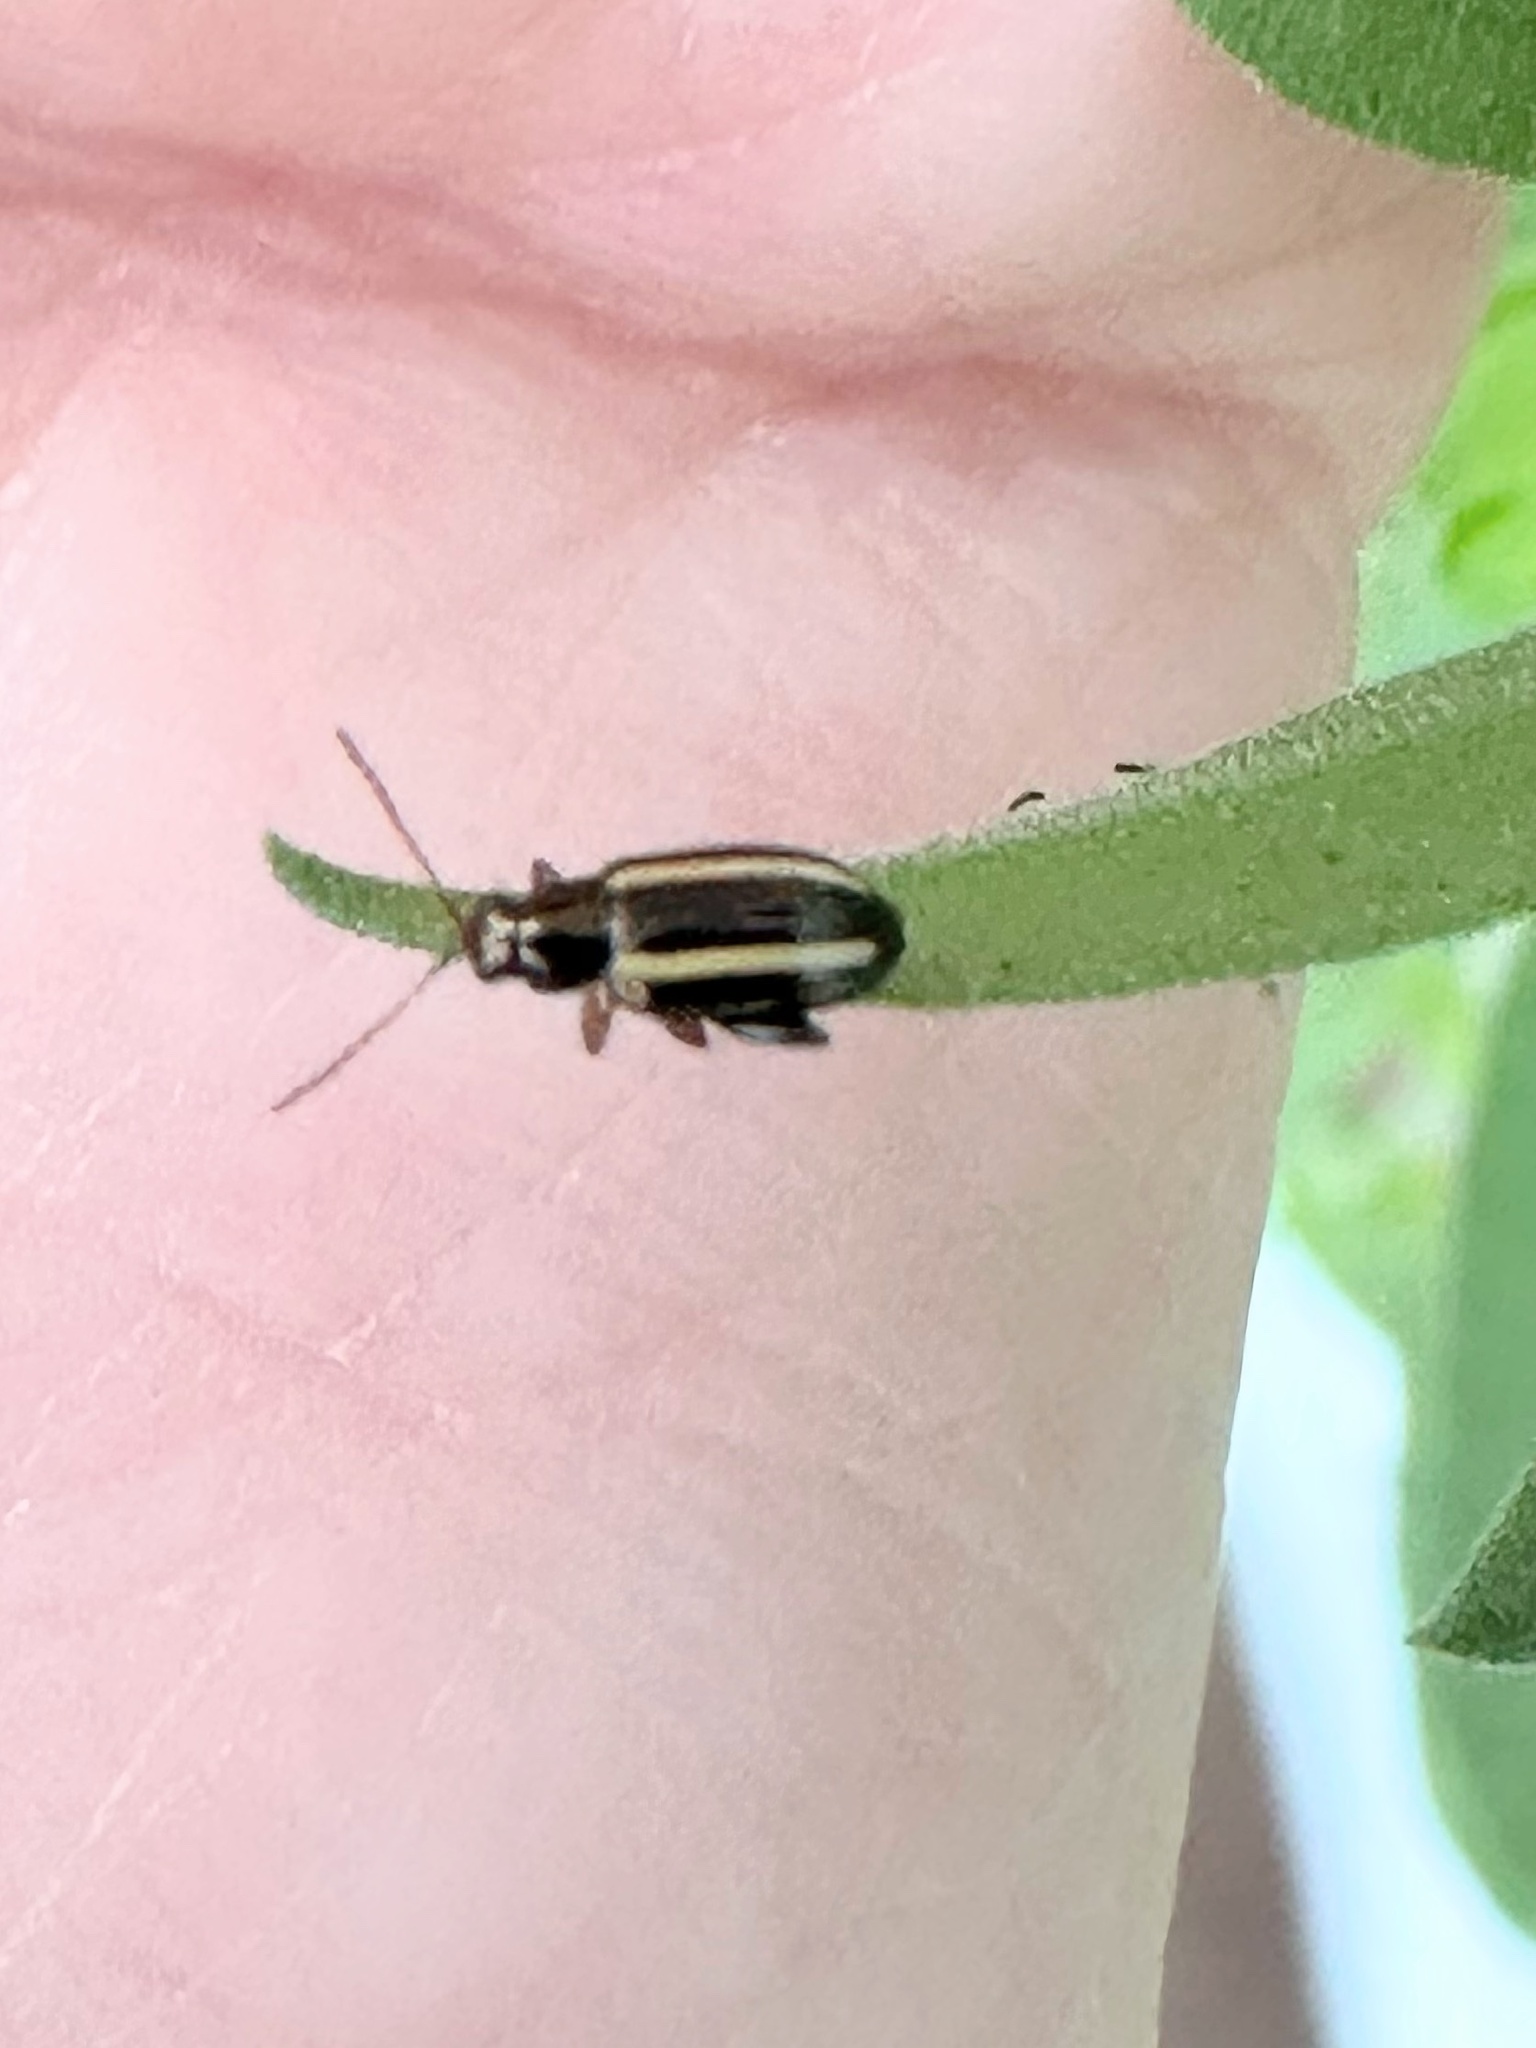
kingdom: Animalia
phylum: Arthropoda
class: Insecta
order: Coleoptera
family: Chrysomelidae
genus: Systena
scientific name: Systena elongata
